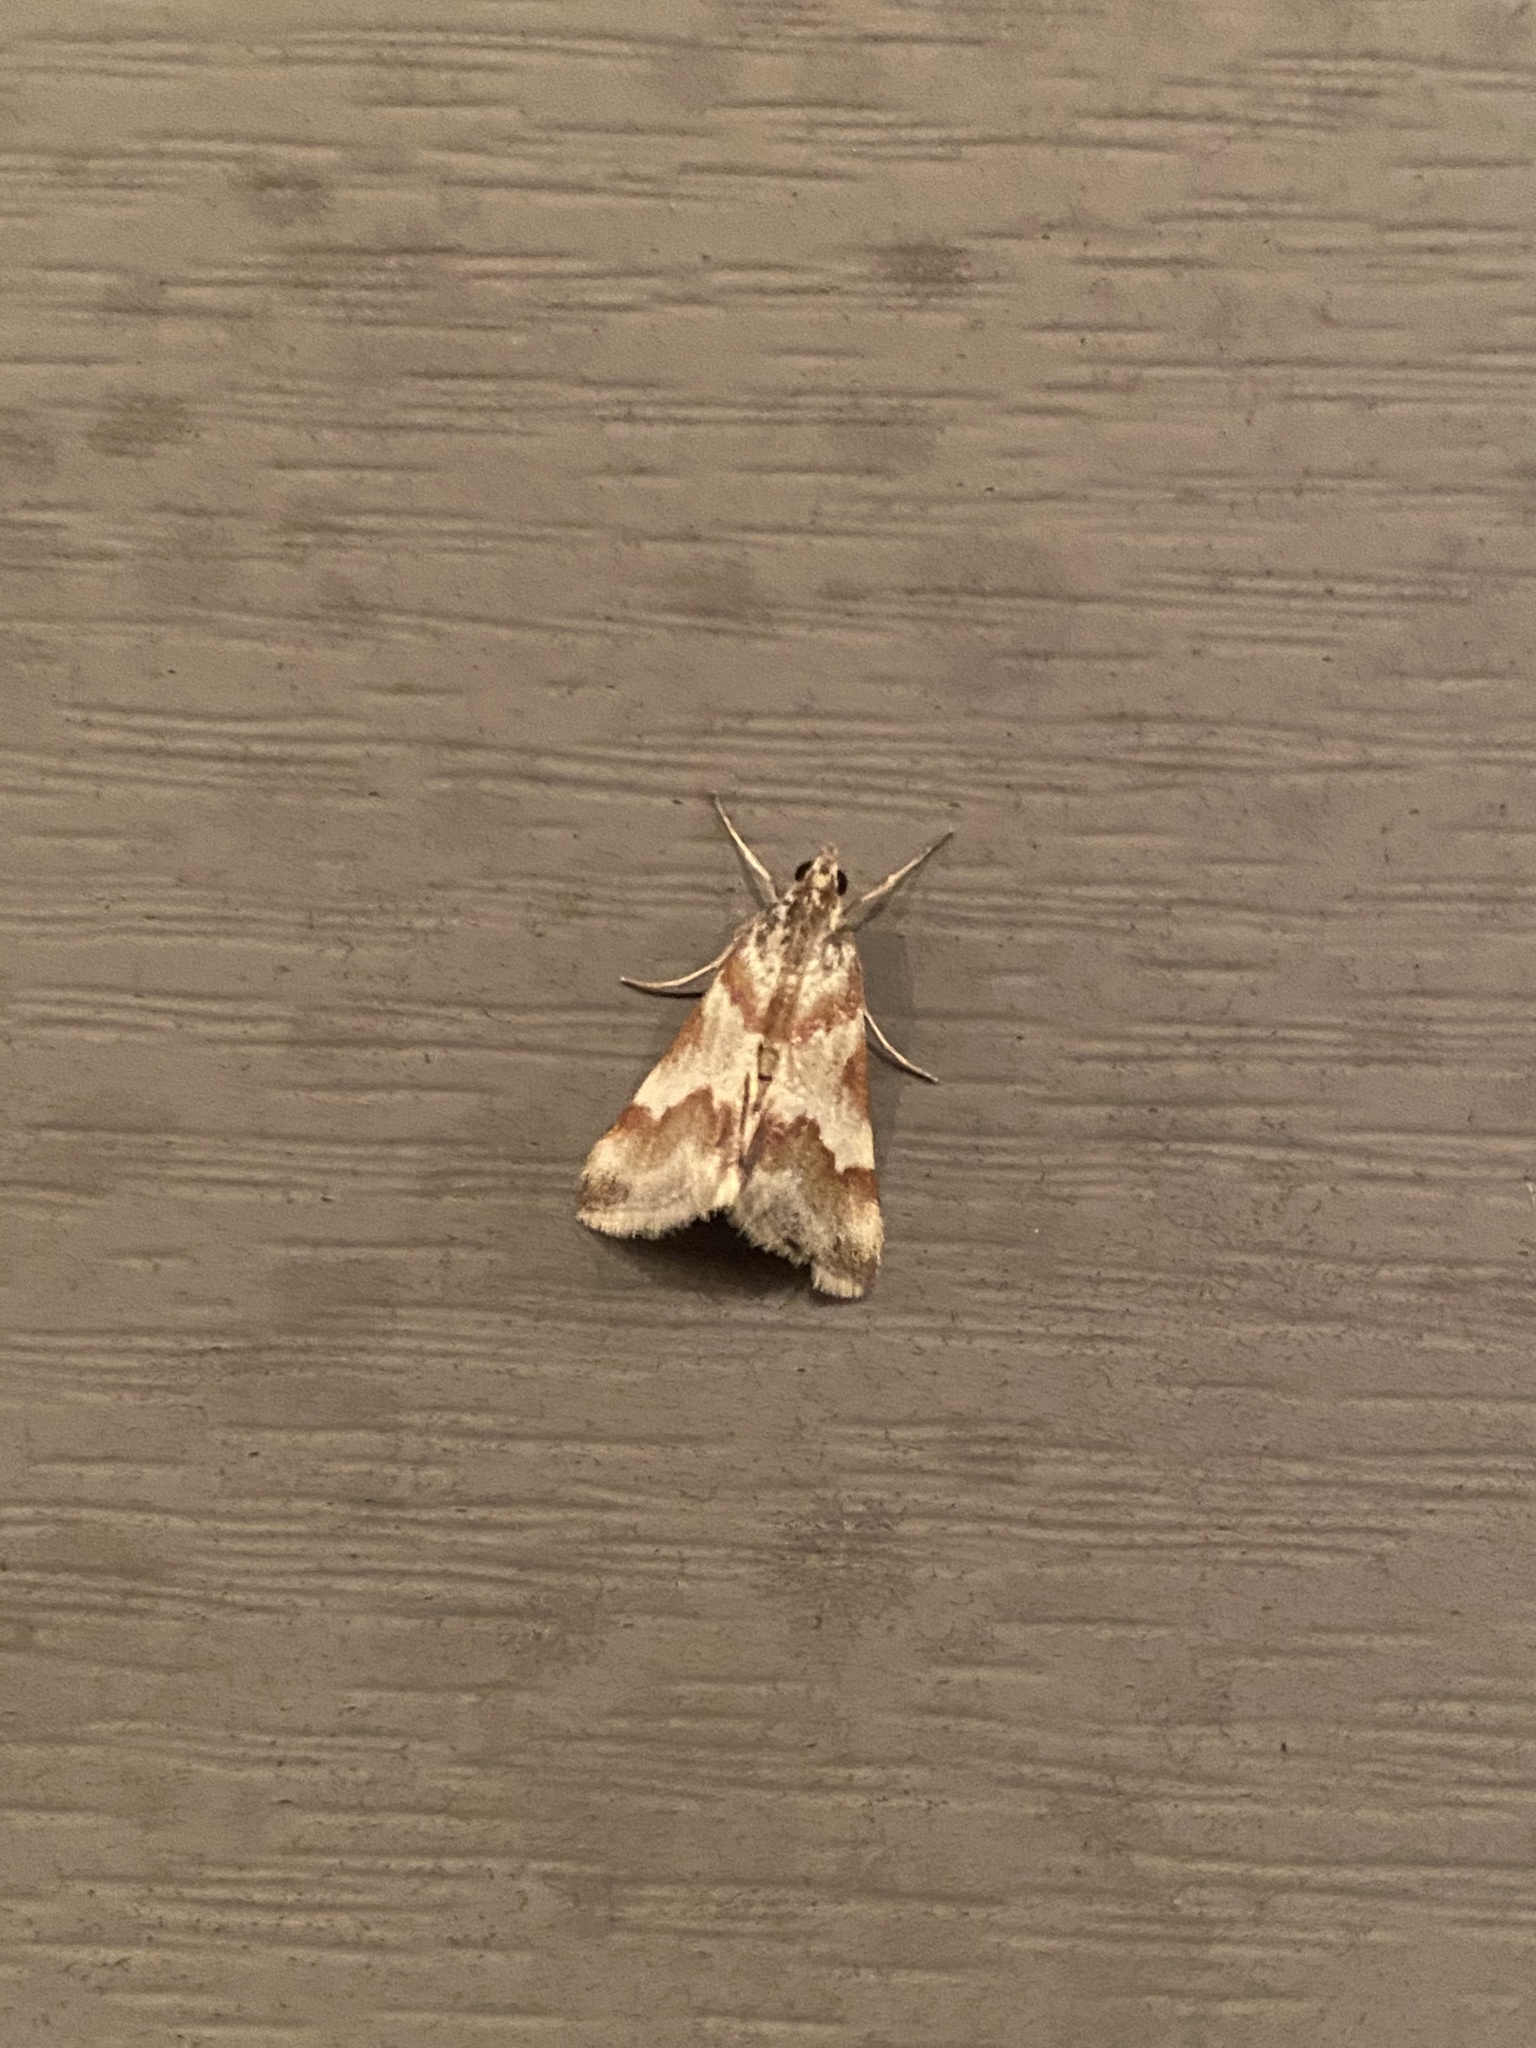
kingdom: Animalia
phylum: Arthropoda
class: Insecta
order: Lepidoptera
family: Crambidae
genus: Noctuelia
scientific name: Noctuelia Mimoschinia rufofascialis
